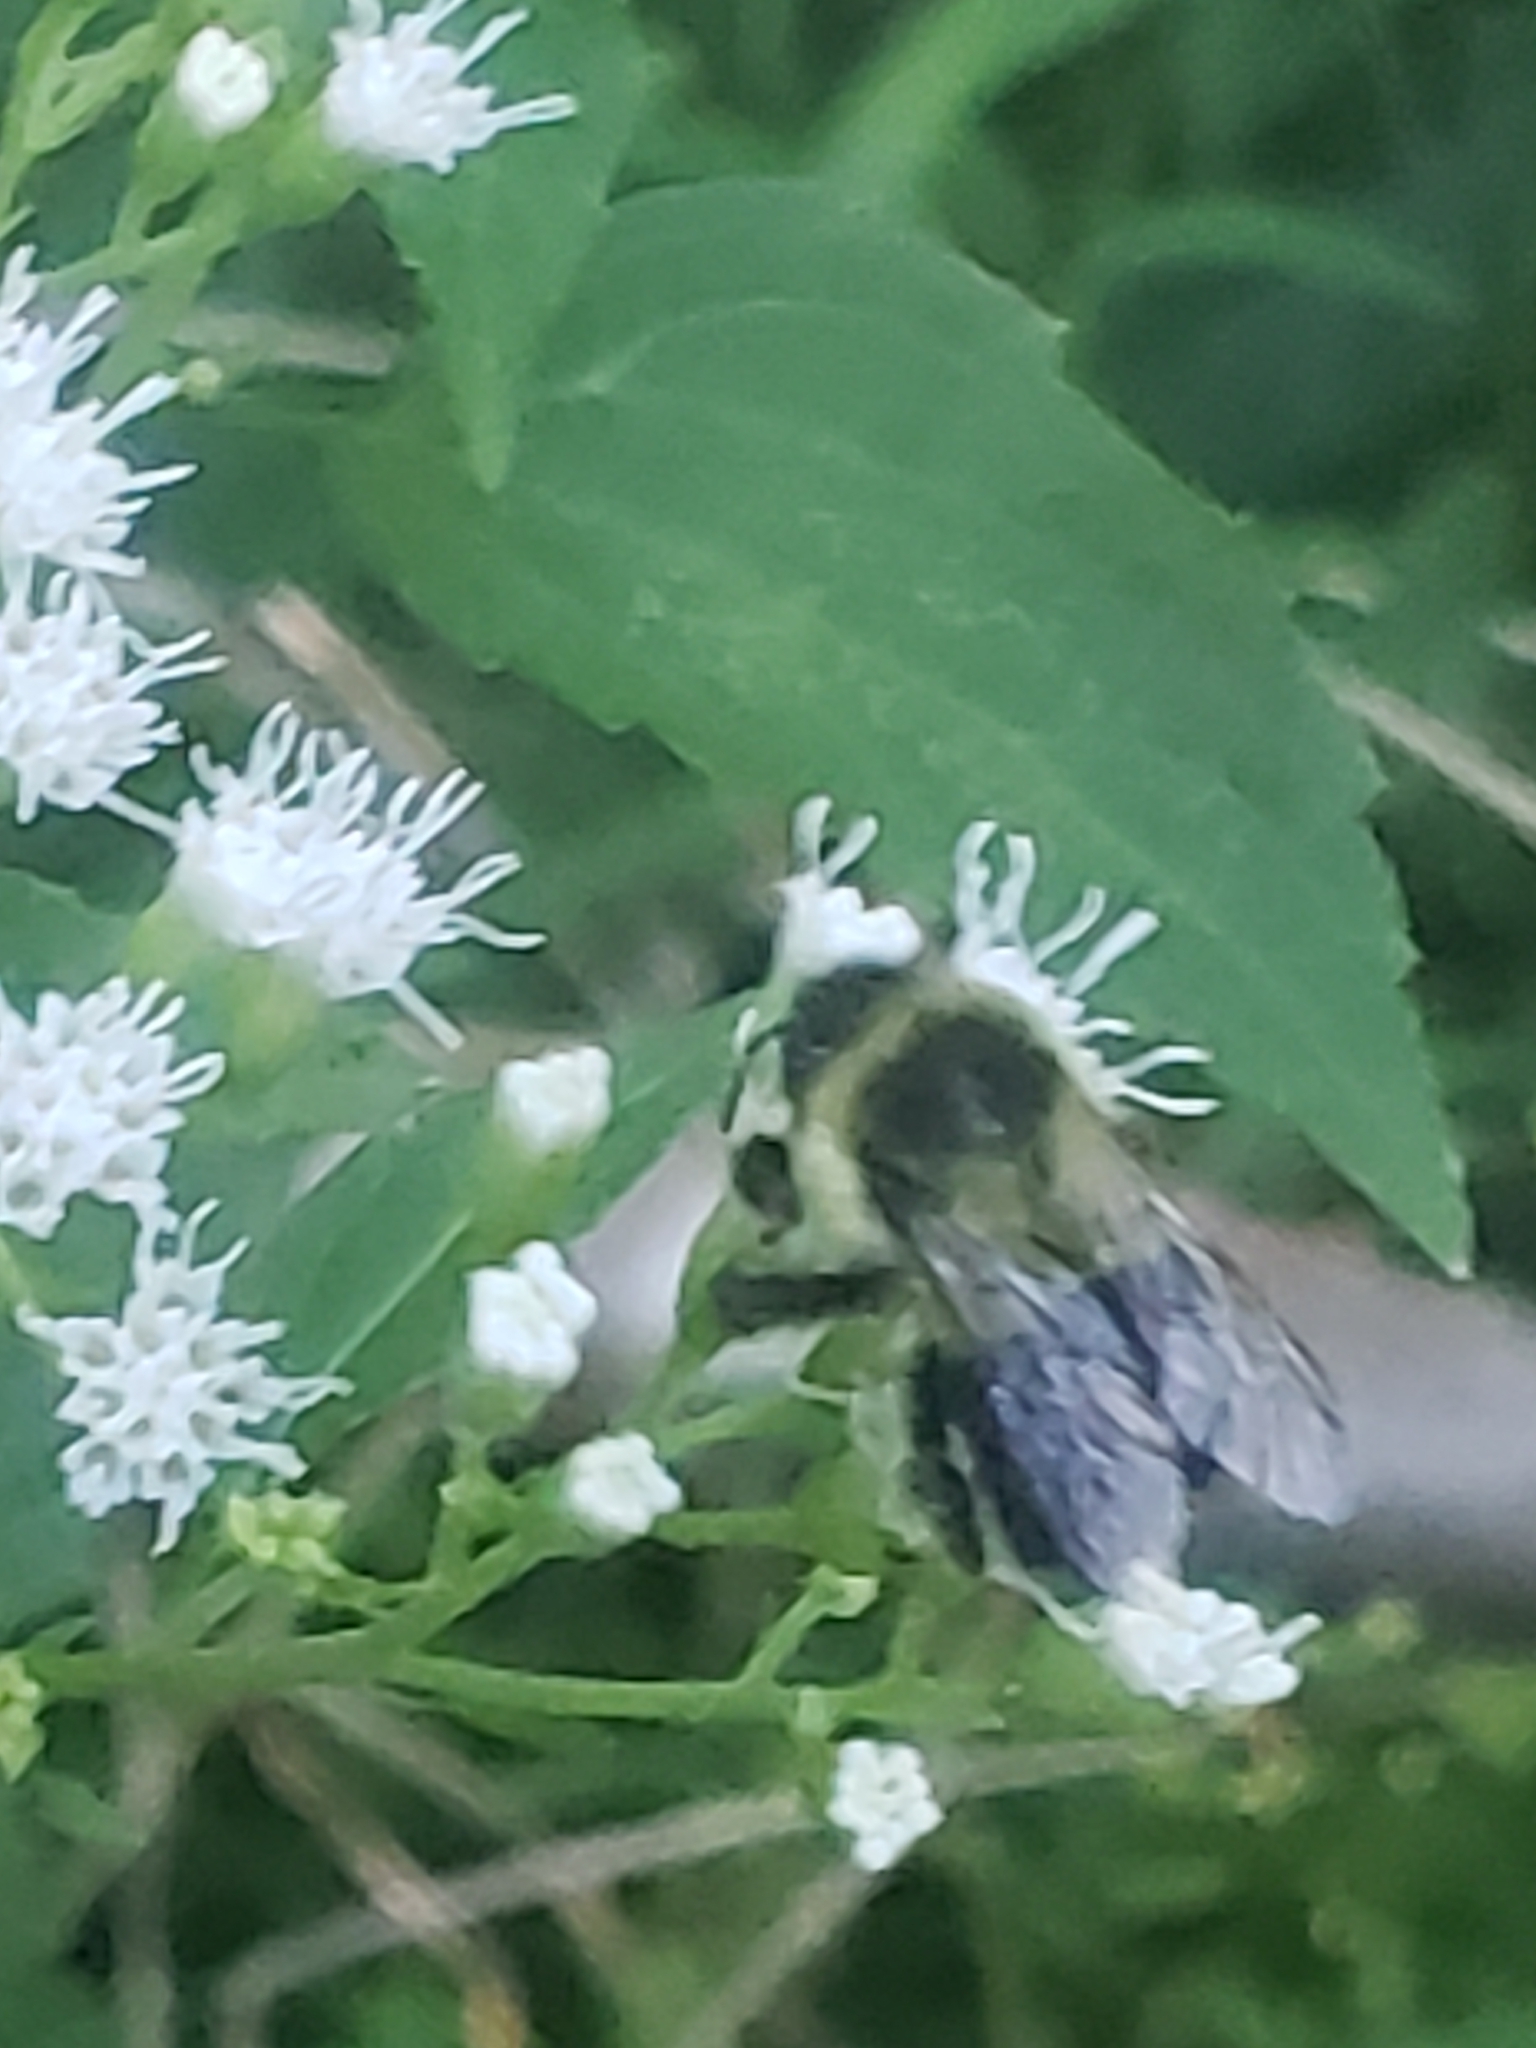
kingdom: Animalia
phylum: Arthropoda
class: Insecta
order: Hymenoptera
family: Apidae
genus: Bombus
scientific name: Bombus impatiens
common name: Common eastern bumble bee
